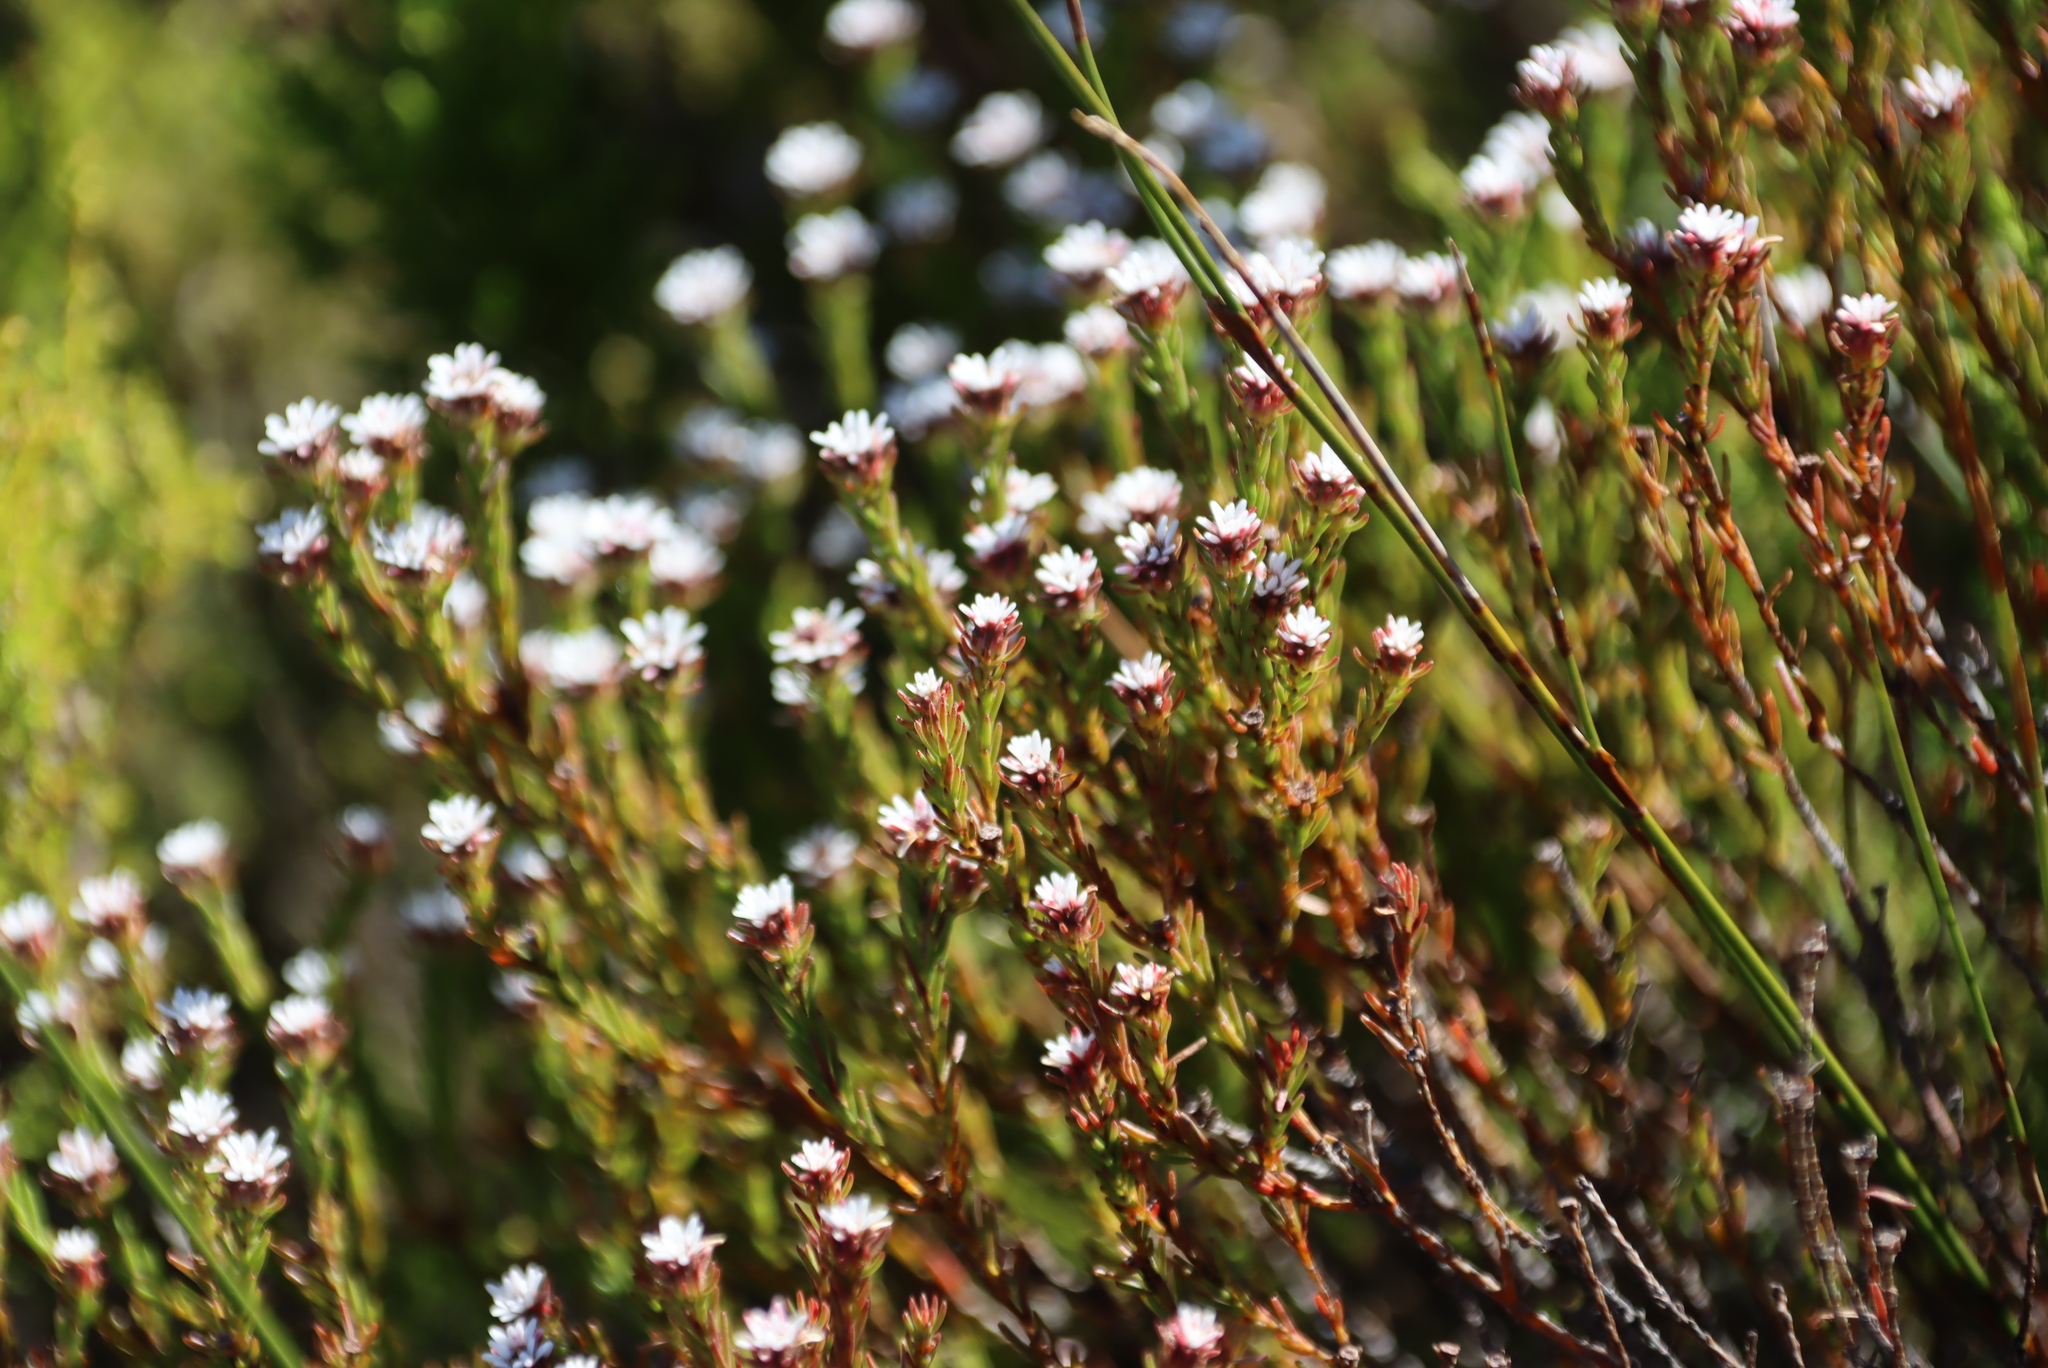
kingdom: Plantae
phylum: Tracheophyta
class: Magnoliopsida
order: Bruniales
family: Bruniaceae
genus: Staavia
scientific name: Staavia radiata
